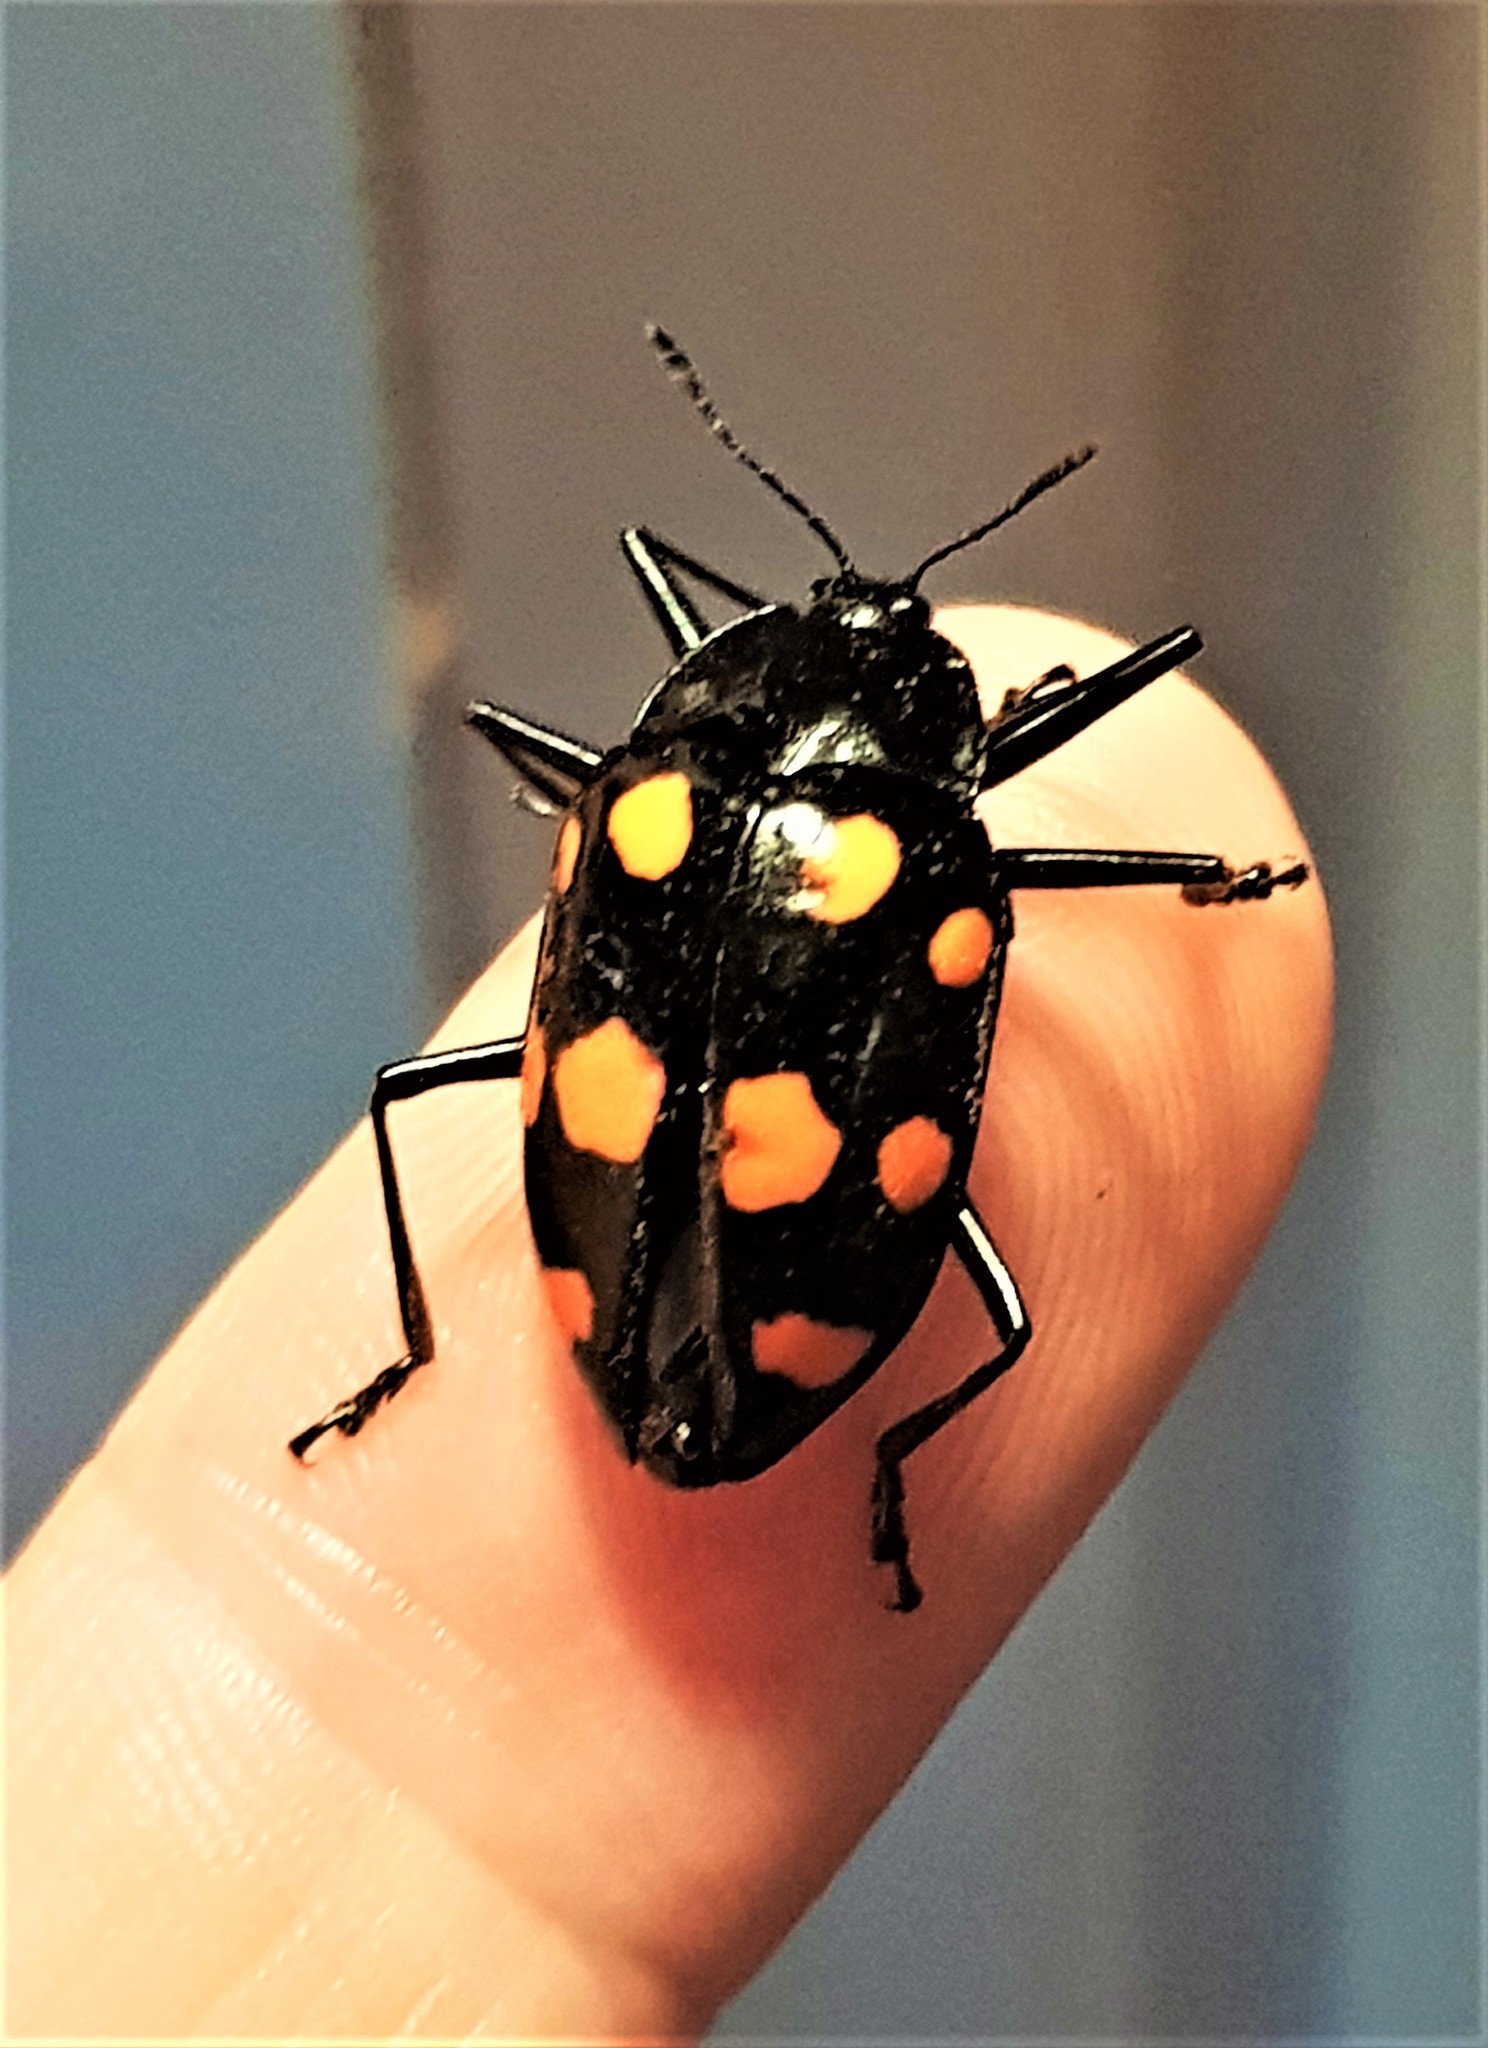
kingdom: Animalia
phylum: Arthropoda
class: Insecta
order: Coleoptera
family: Erotylidae
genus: Scaphidomorphus
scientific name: Scaphidomorphus quinquepunctatus
